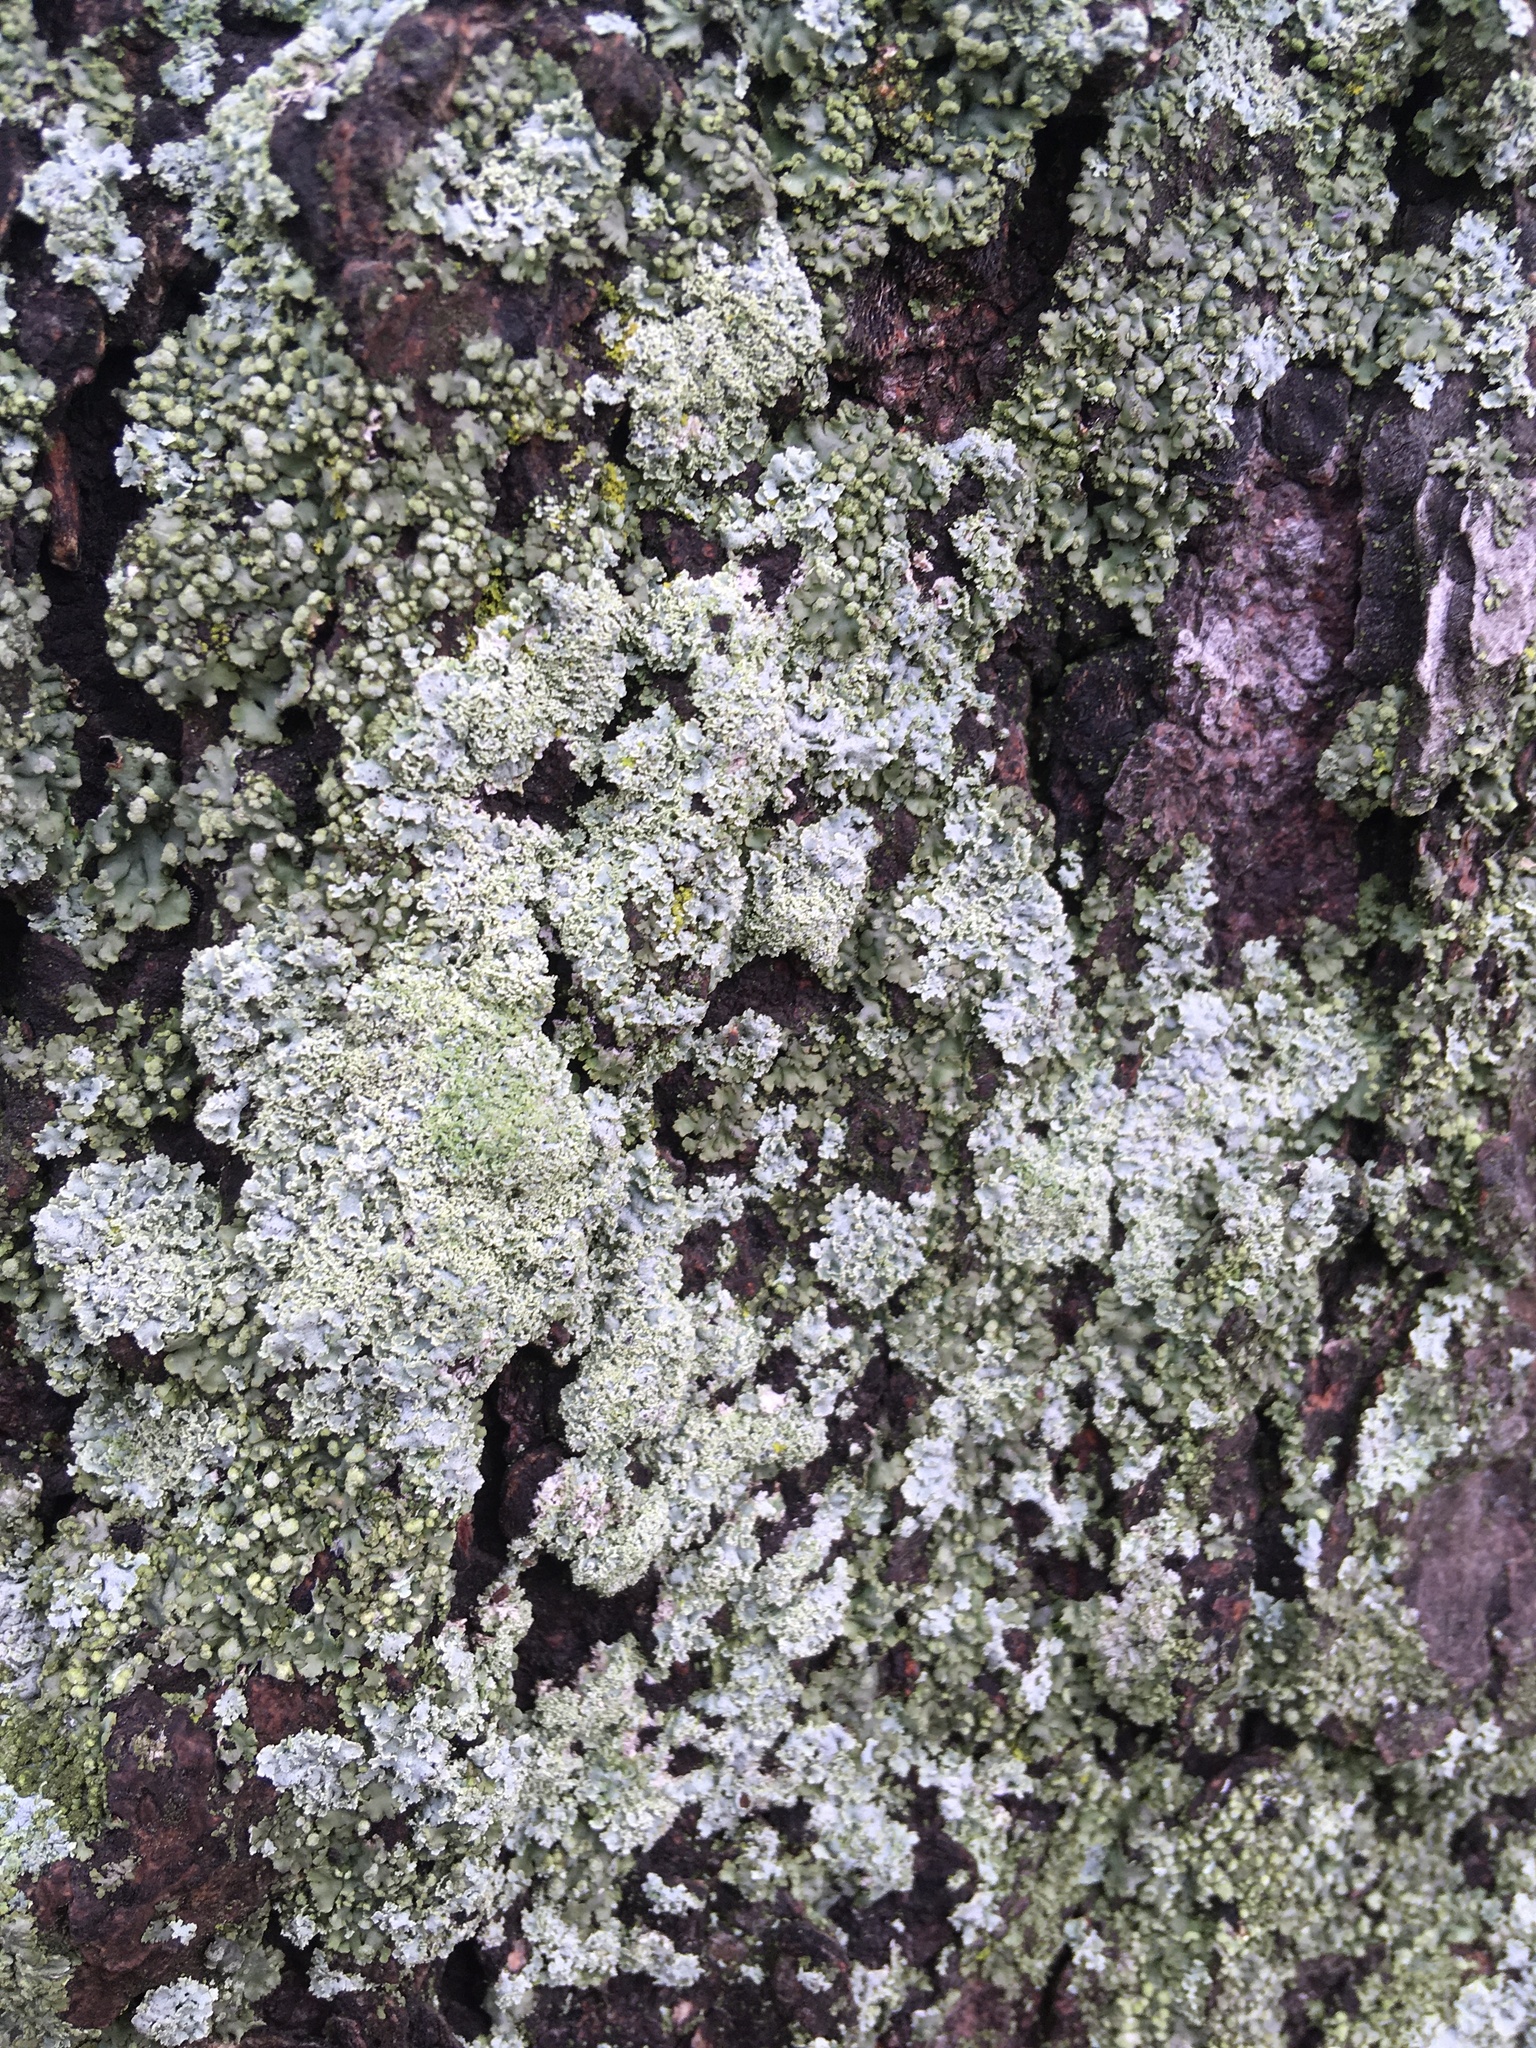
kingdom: Fungi
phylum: Ascomycota
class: Lecanoromycetes
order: Caliciales
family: Physciaceae
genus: Physcia
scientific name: Physcia millegrana
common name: Rosette lichen
